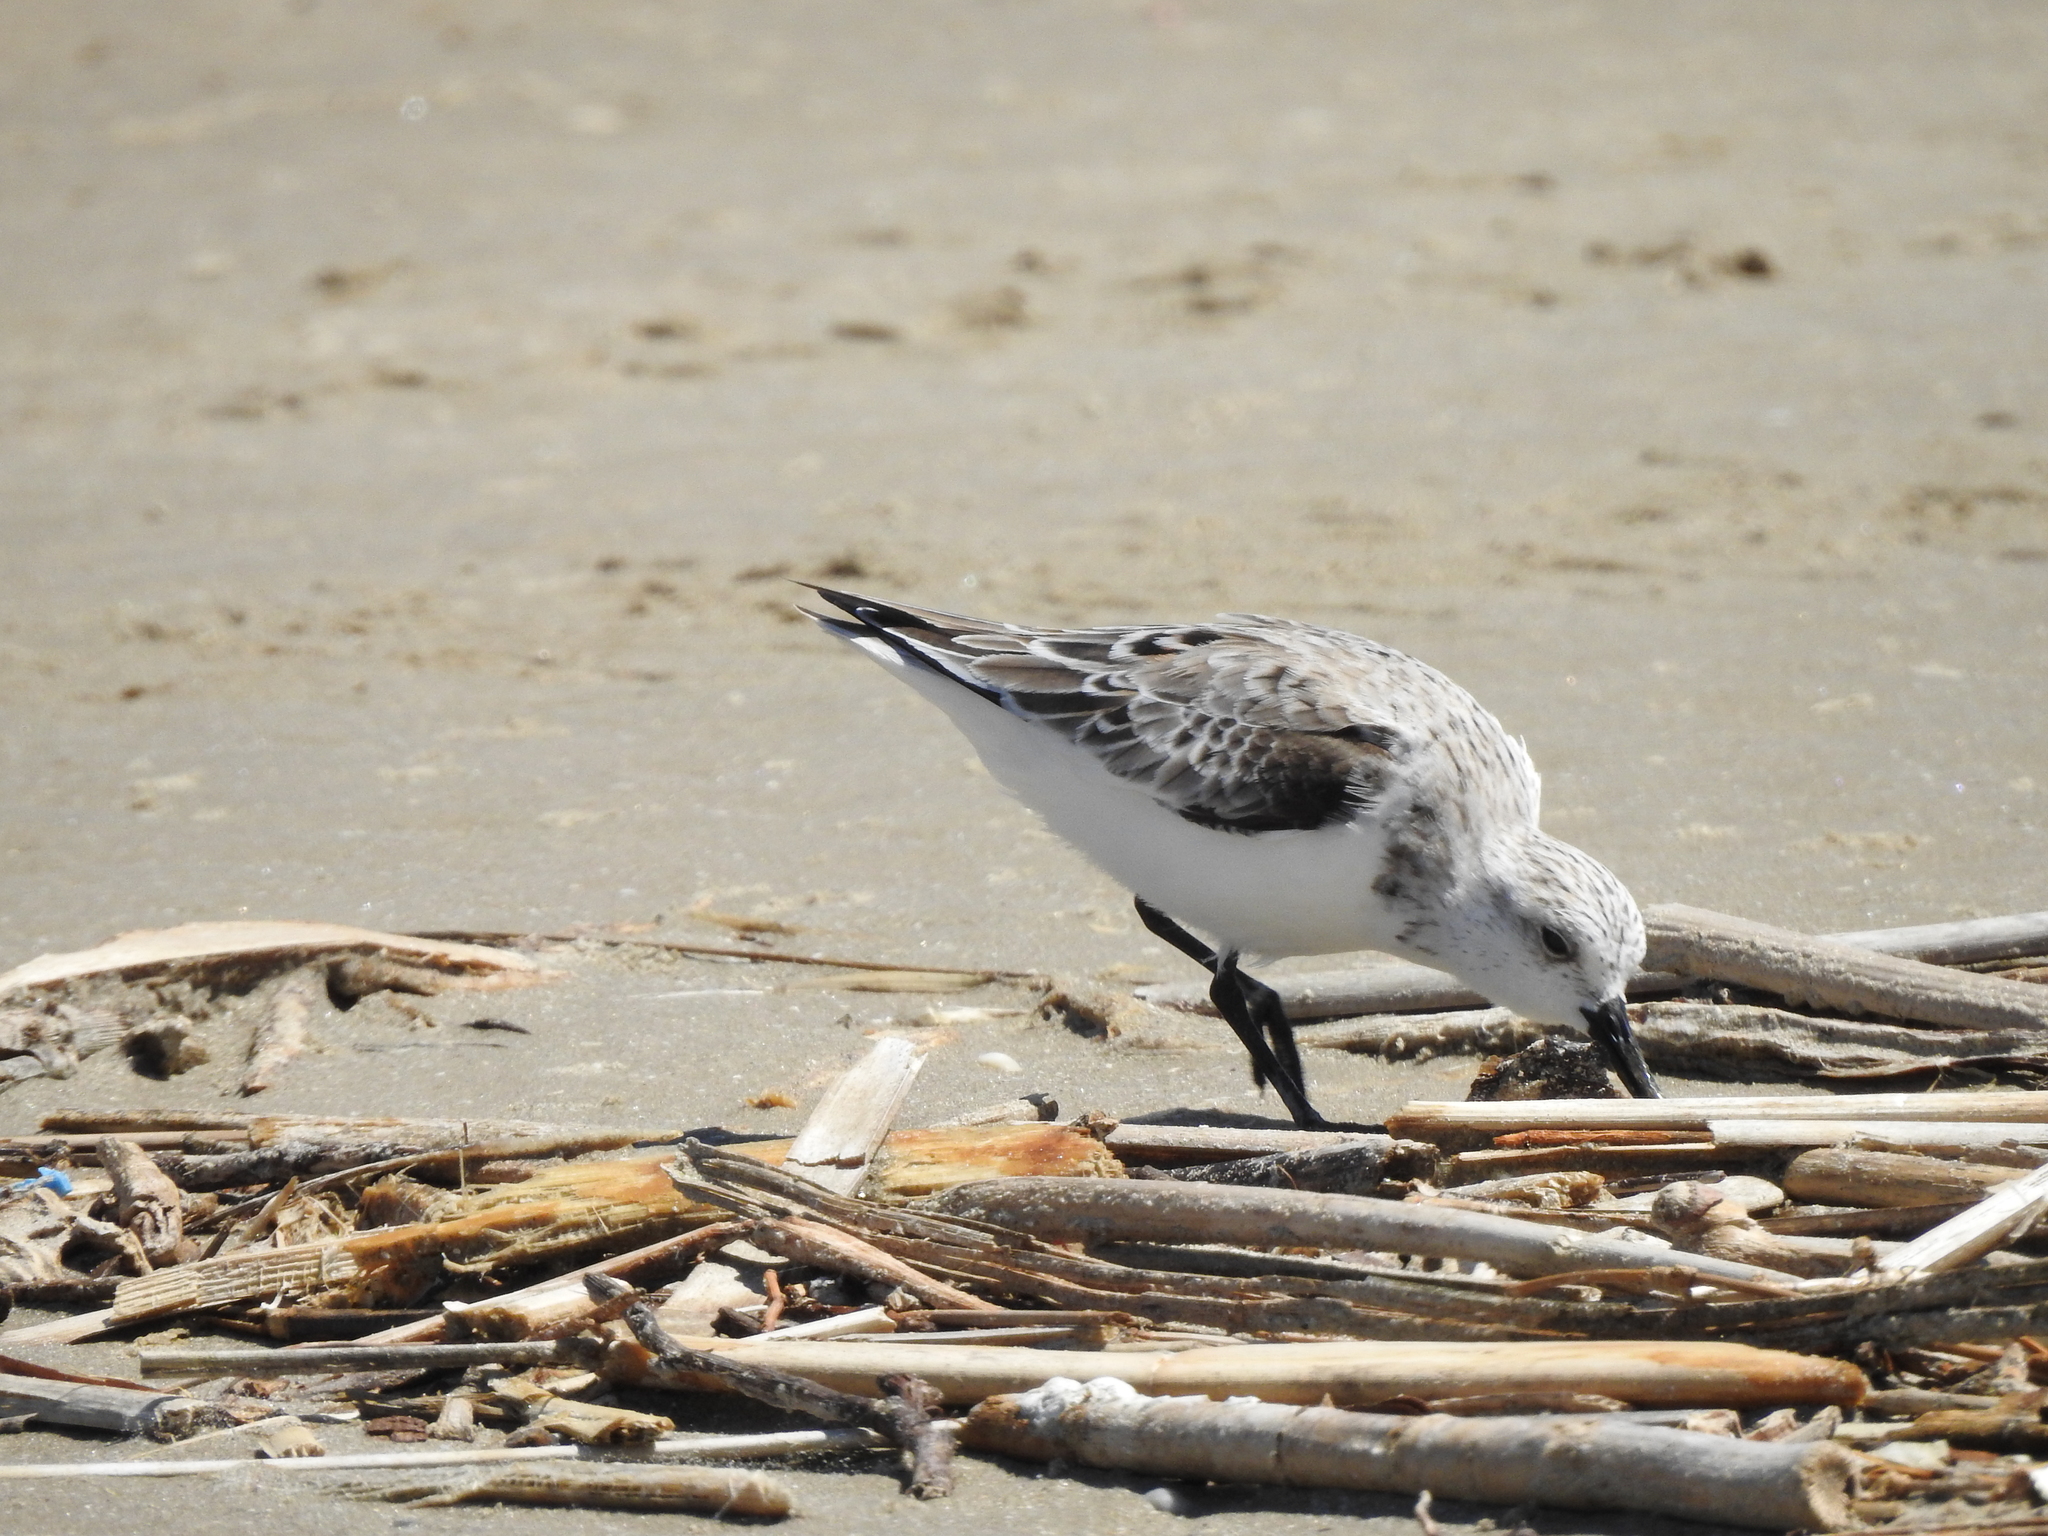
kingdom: Animalia
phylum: Chordata
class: Aves
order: Charadriiformes
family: Scolopacidae
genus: Calidris
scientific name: Calidris alba
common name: Sanderling
